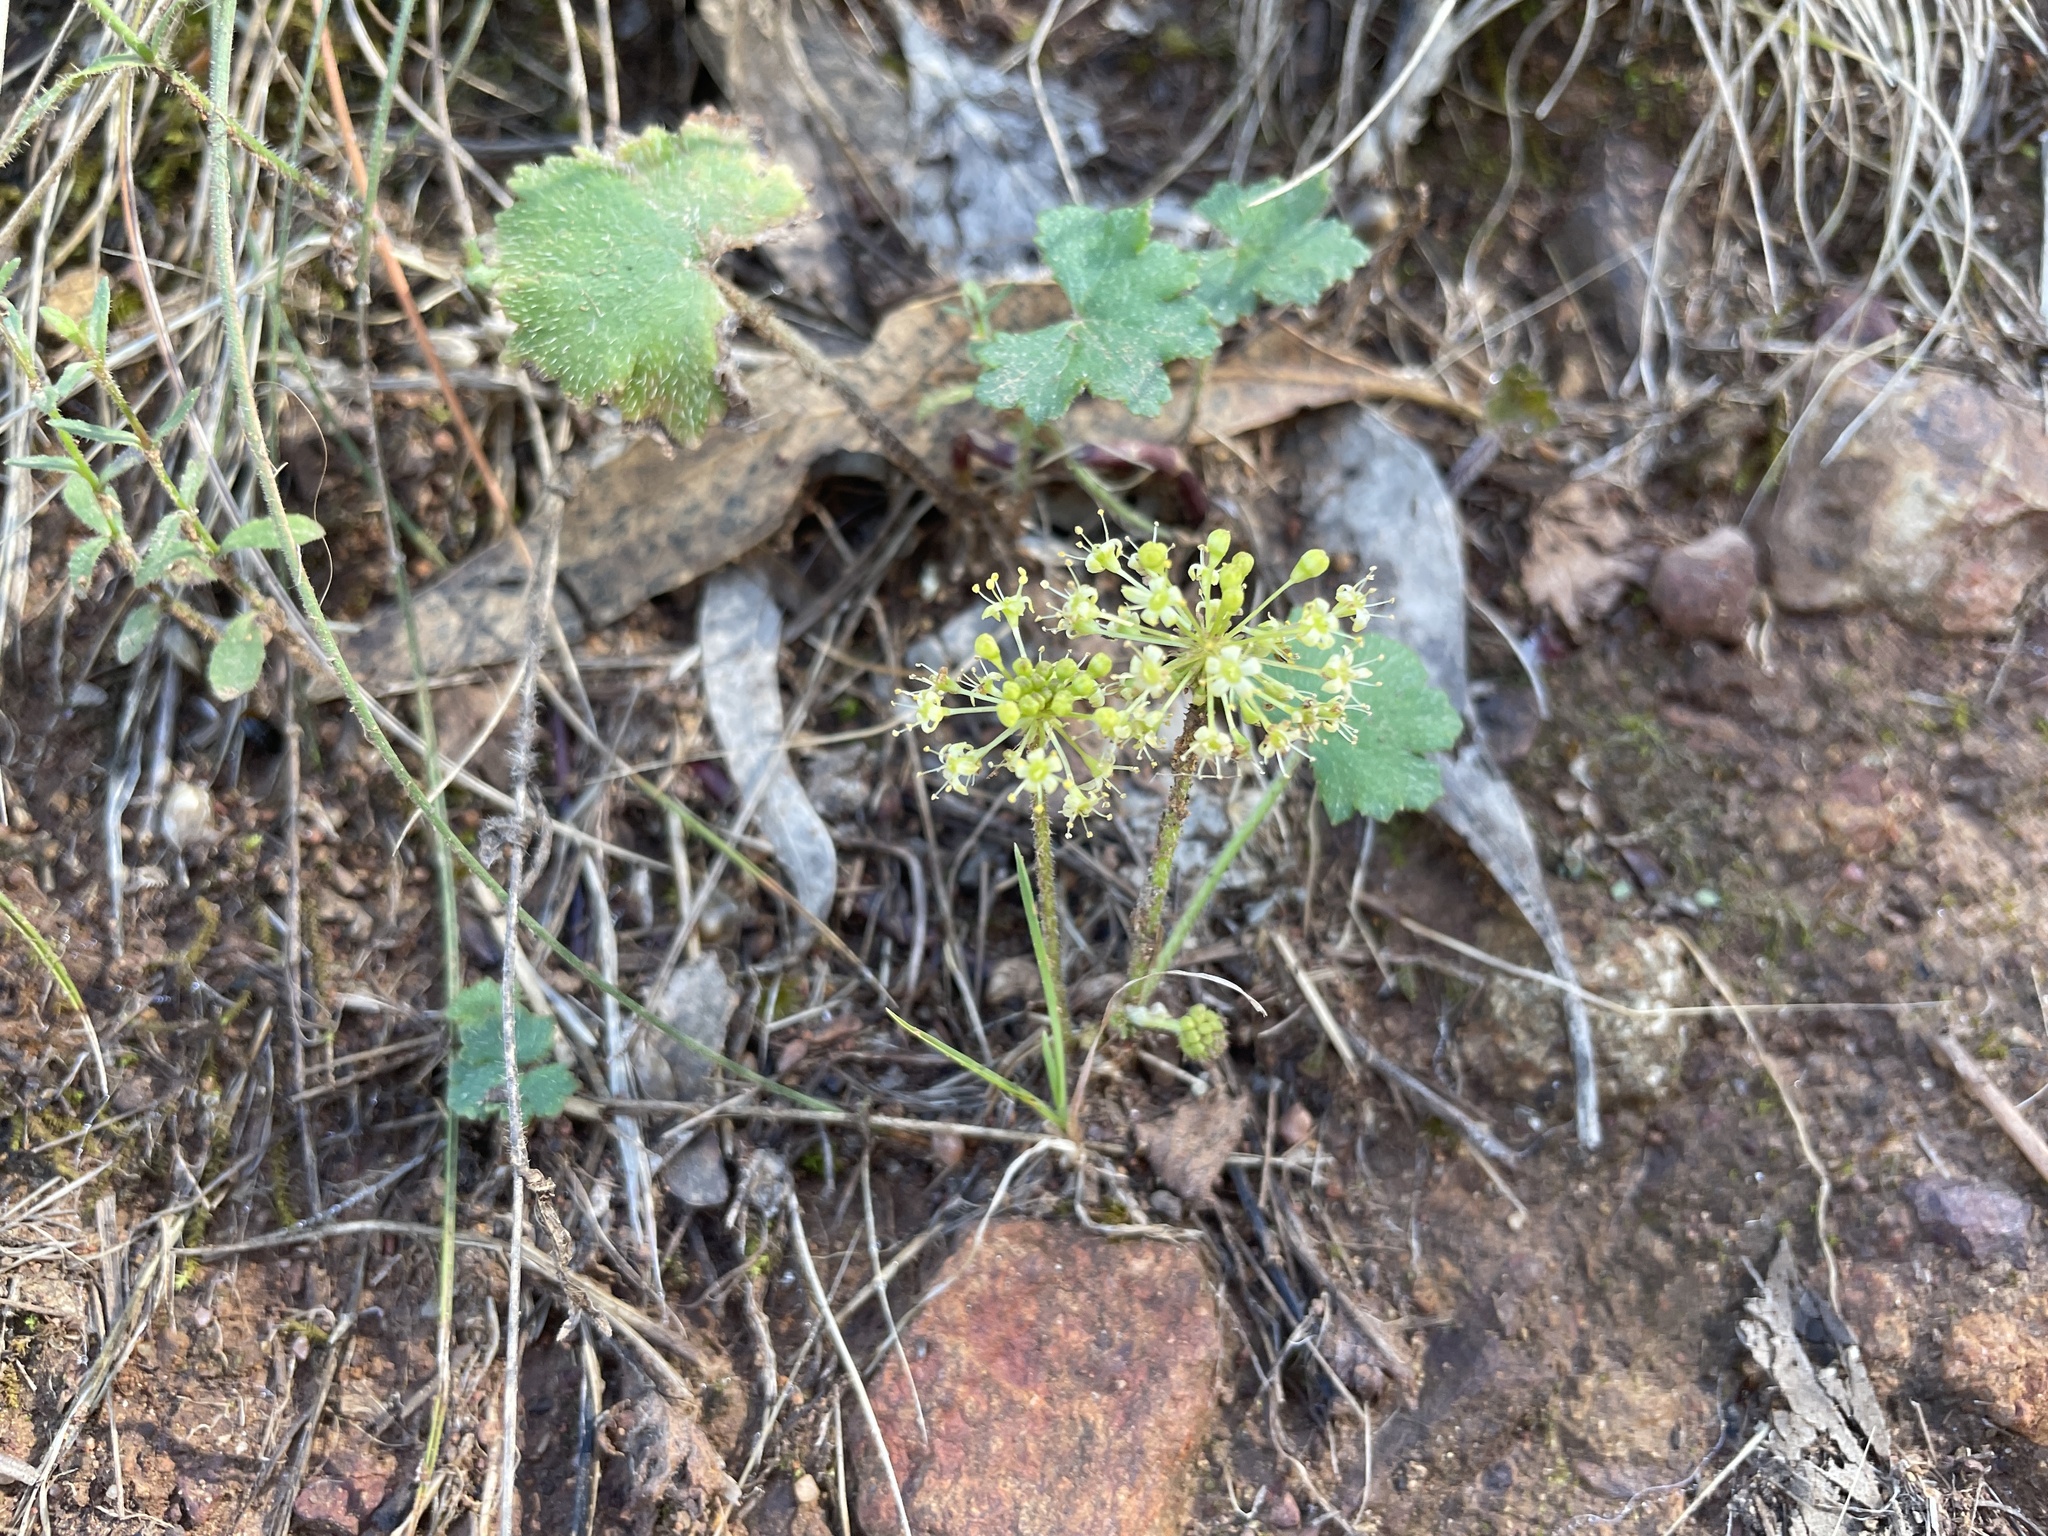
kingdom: Plantae
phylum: Tracheophyta
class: Magnoliopsida
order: Apiales
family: Araliaceae
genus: Hydrocotyle
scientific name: Hydrocotyle laxiflora
